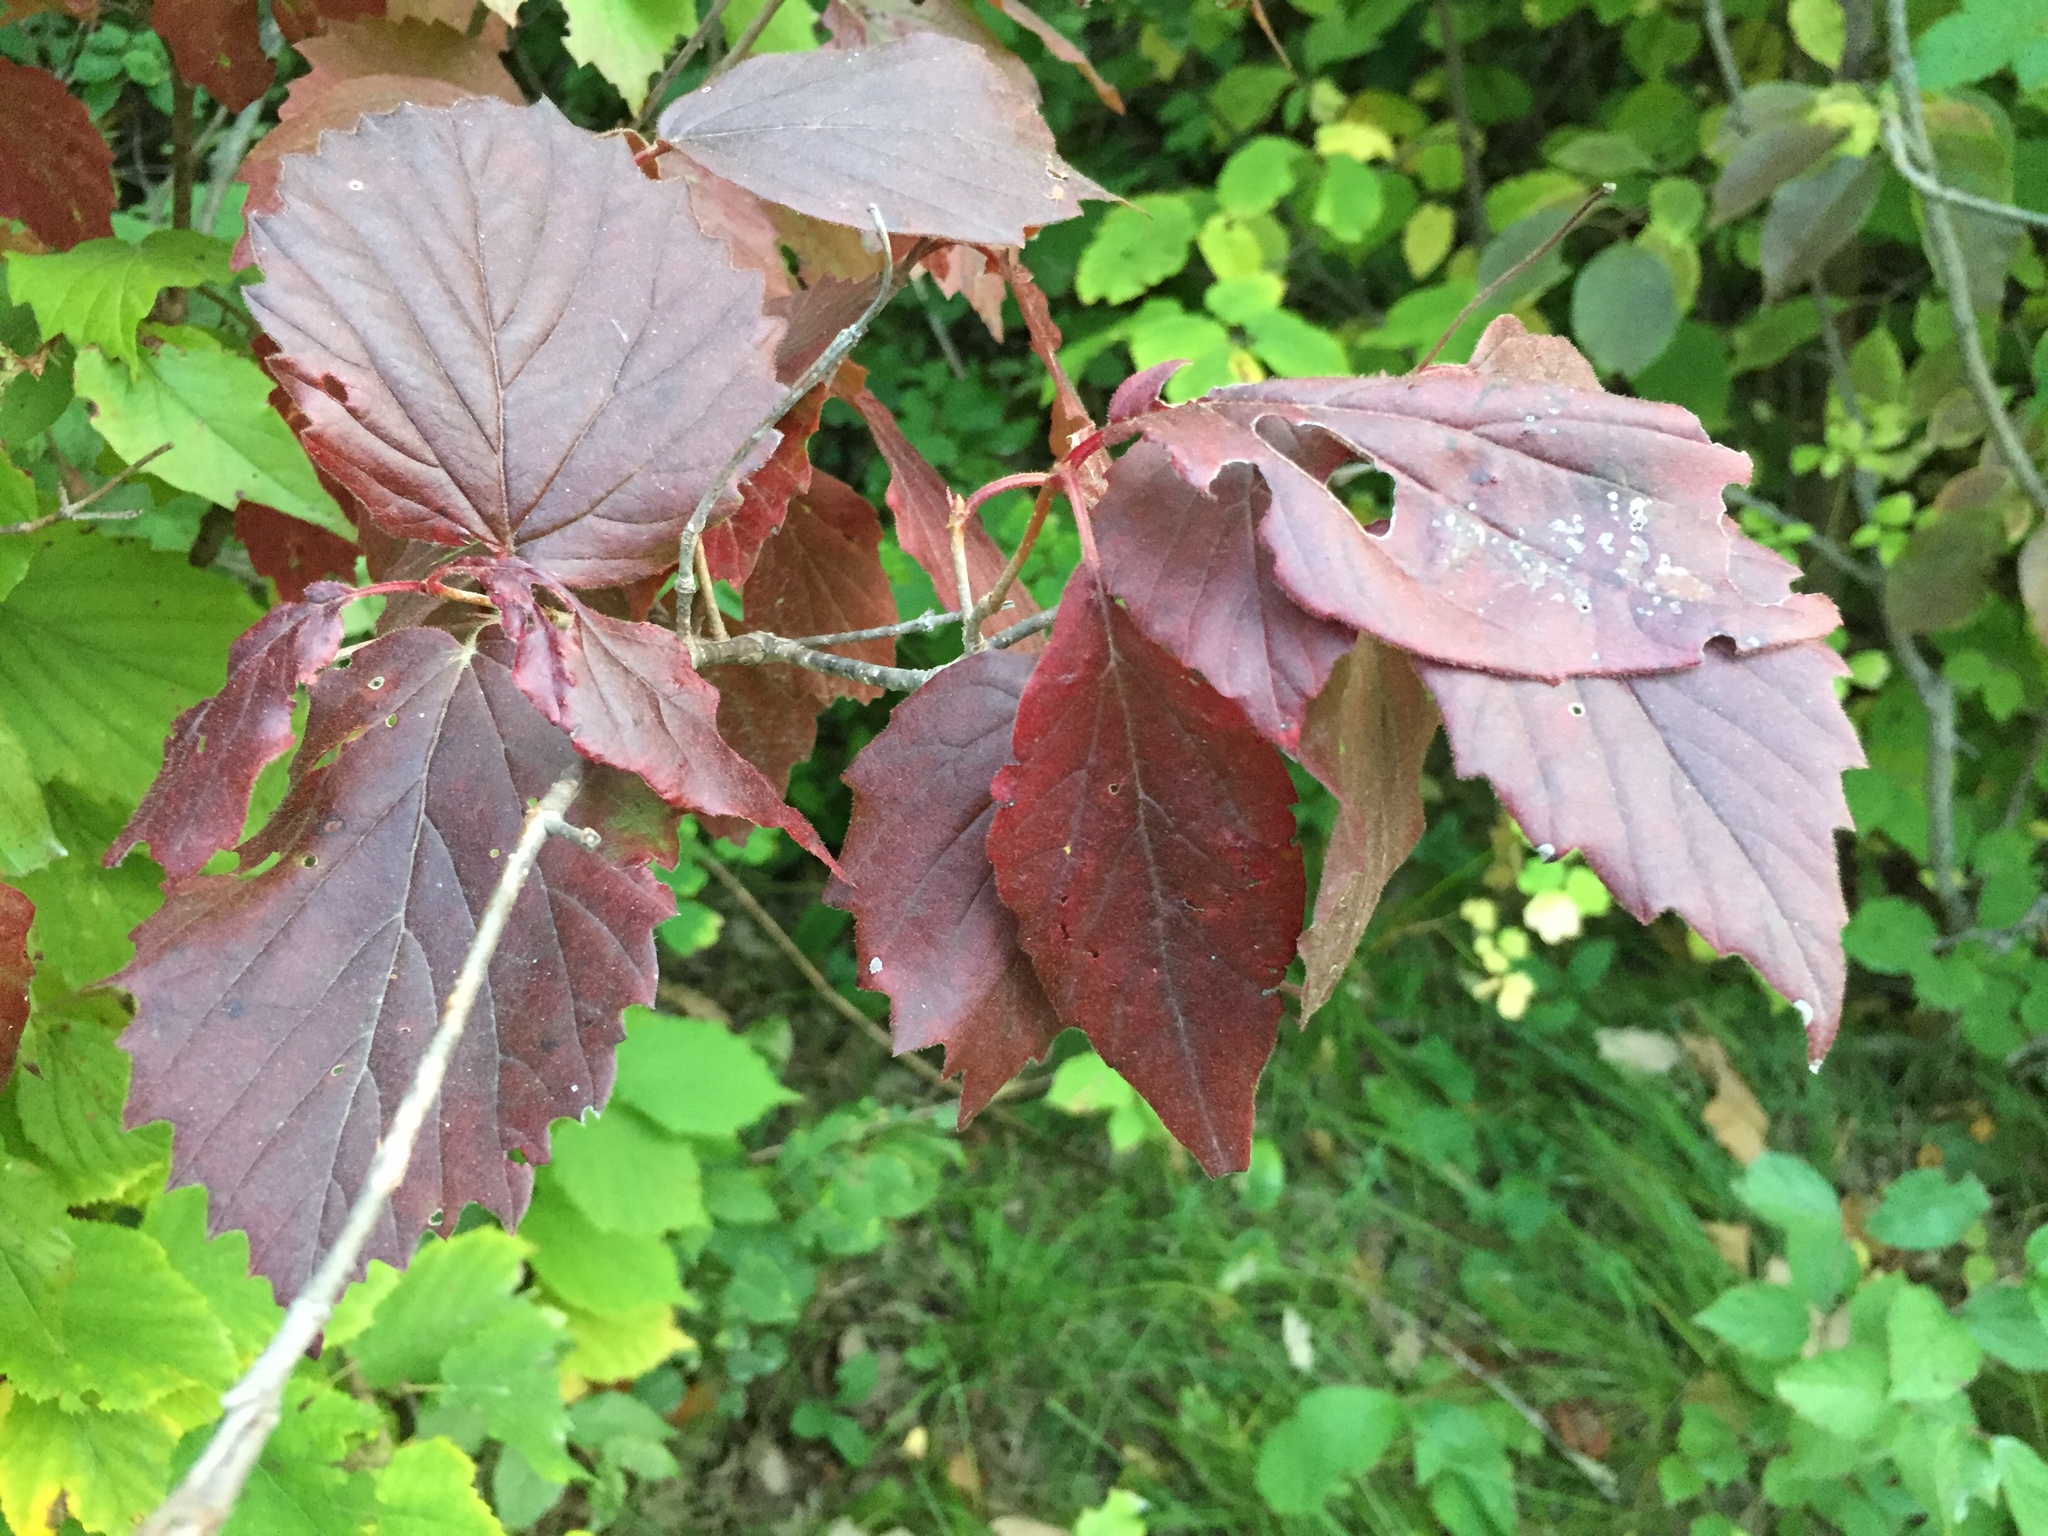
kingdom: Plantae
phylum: Tracheophyta
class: Magnoliopsida
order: Dipsacales
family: Viburnaceae
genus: Viburnum
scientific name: Viburnum rafinesqueanum
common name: Downy arrow-wood
